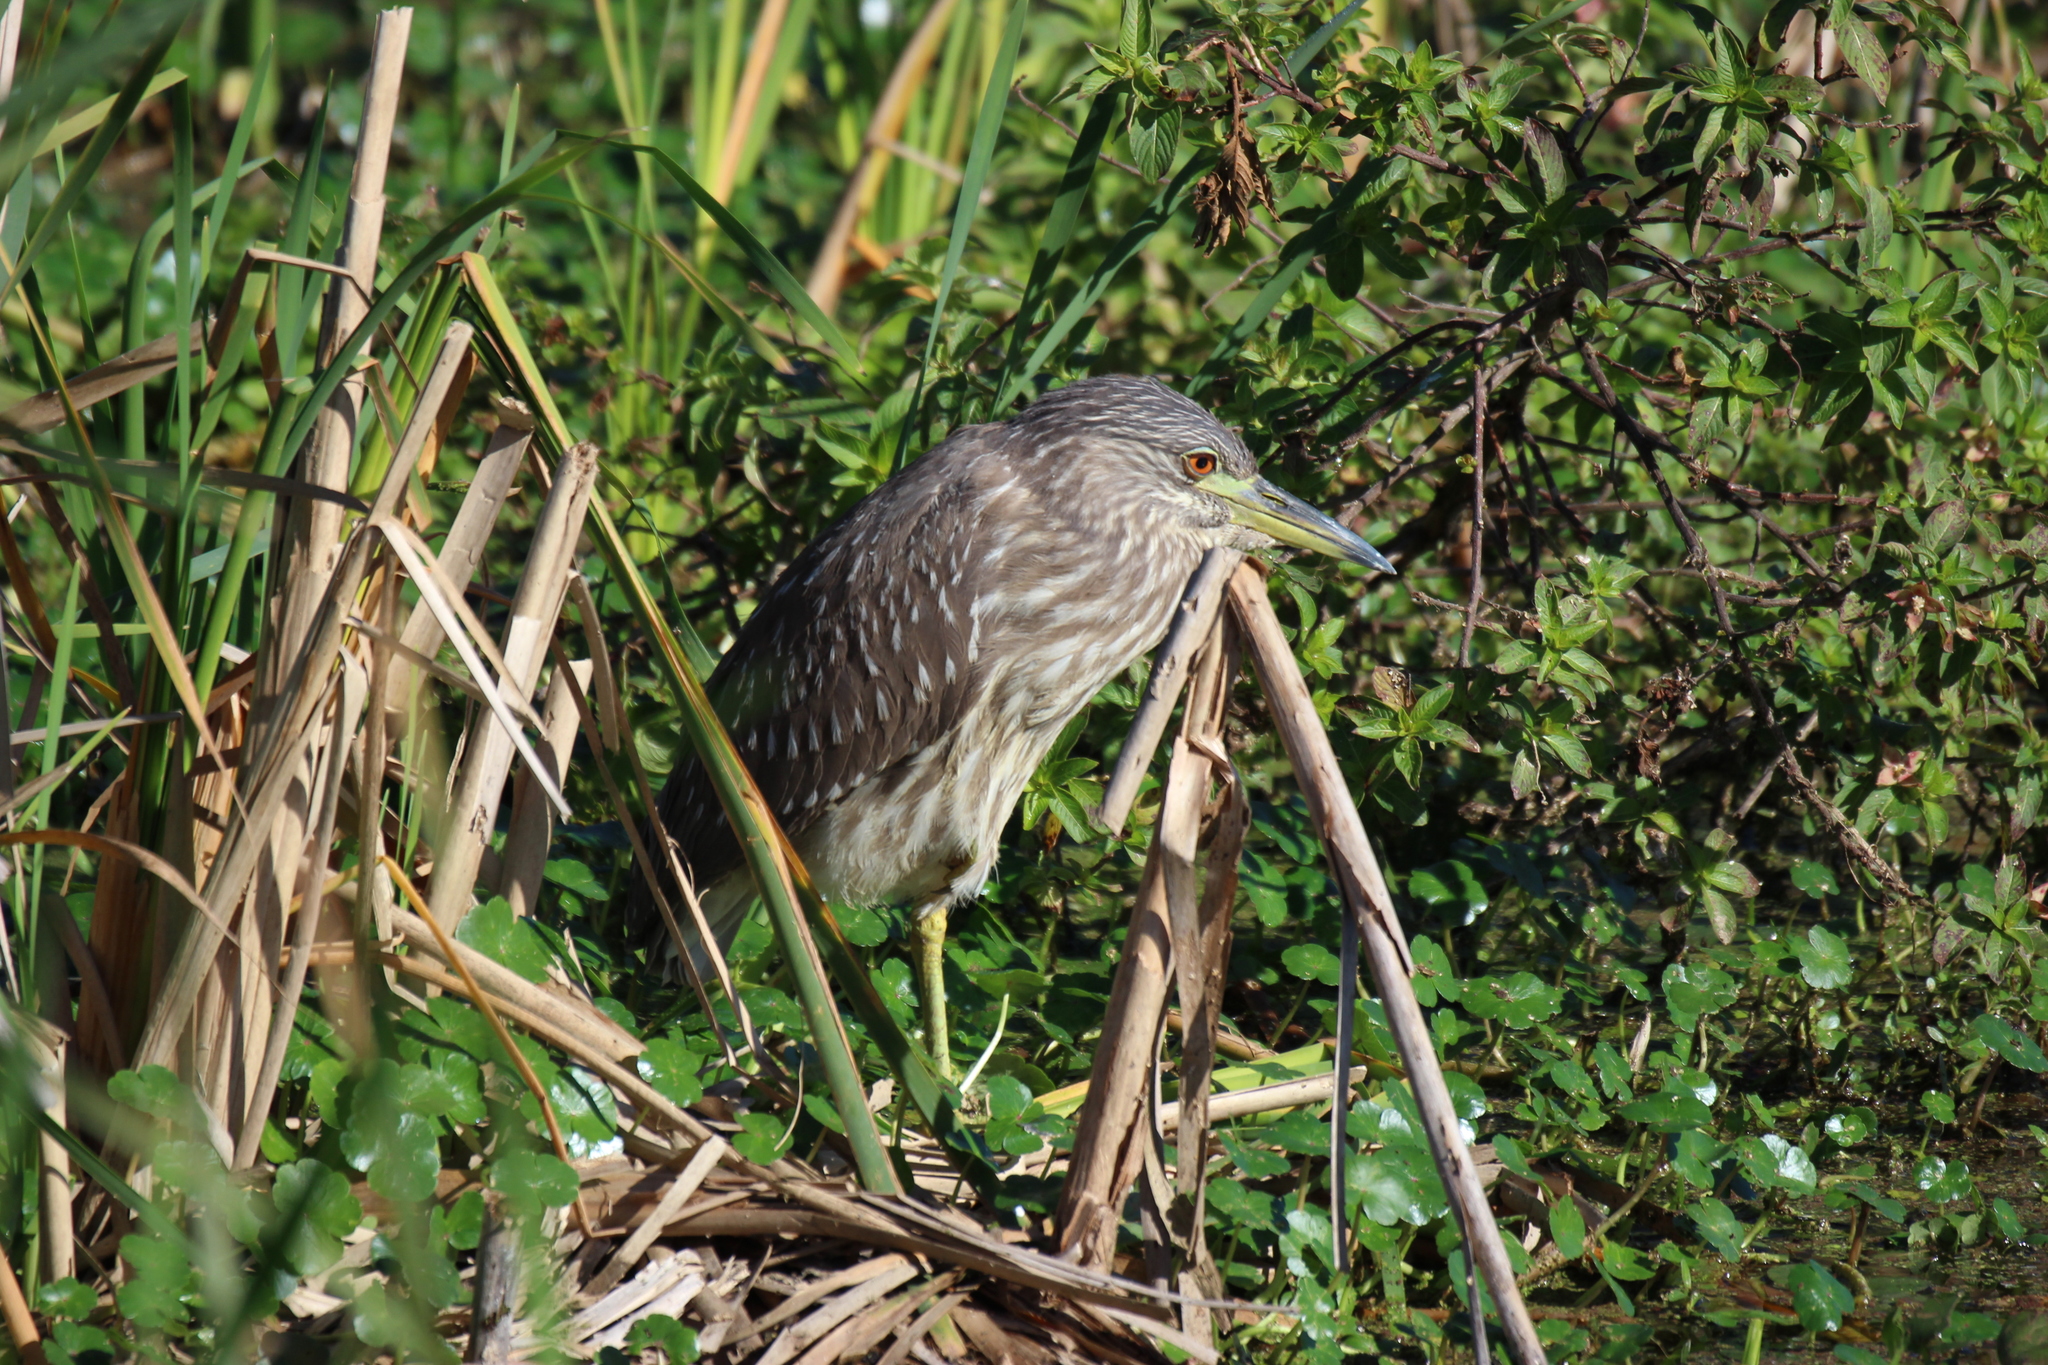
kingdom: Animalia
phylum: Chordata
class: Aves
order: Pelecaniformes
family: Ardeidae
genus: Nycticorax
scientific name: Nycticorax nycticorax
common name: Black-crowned night heron
